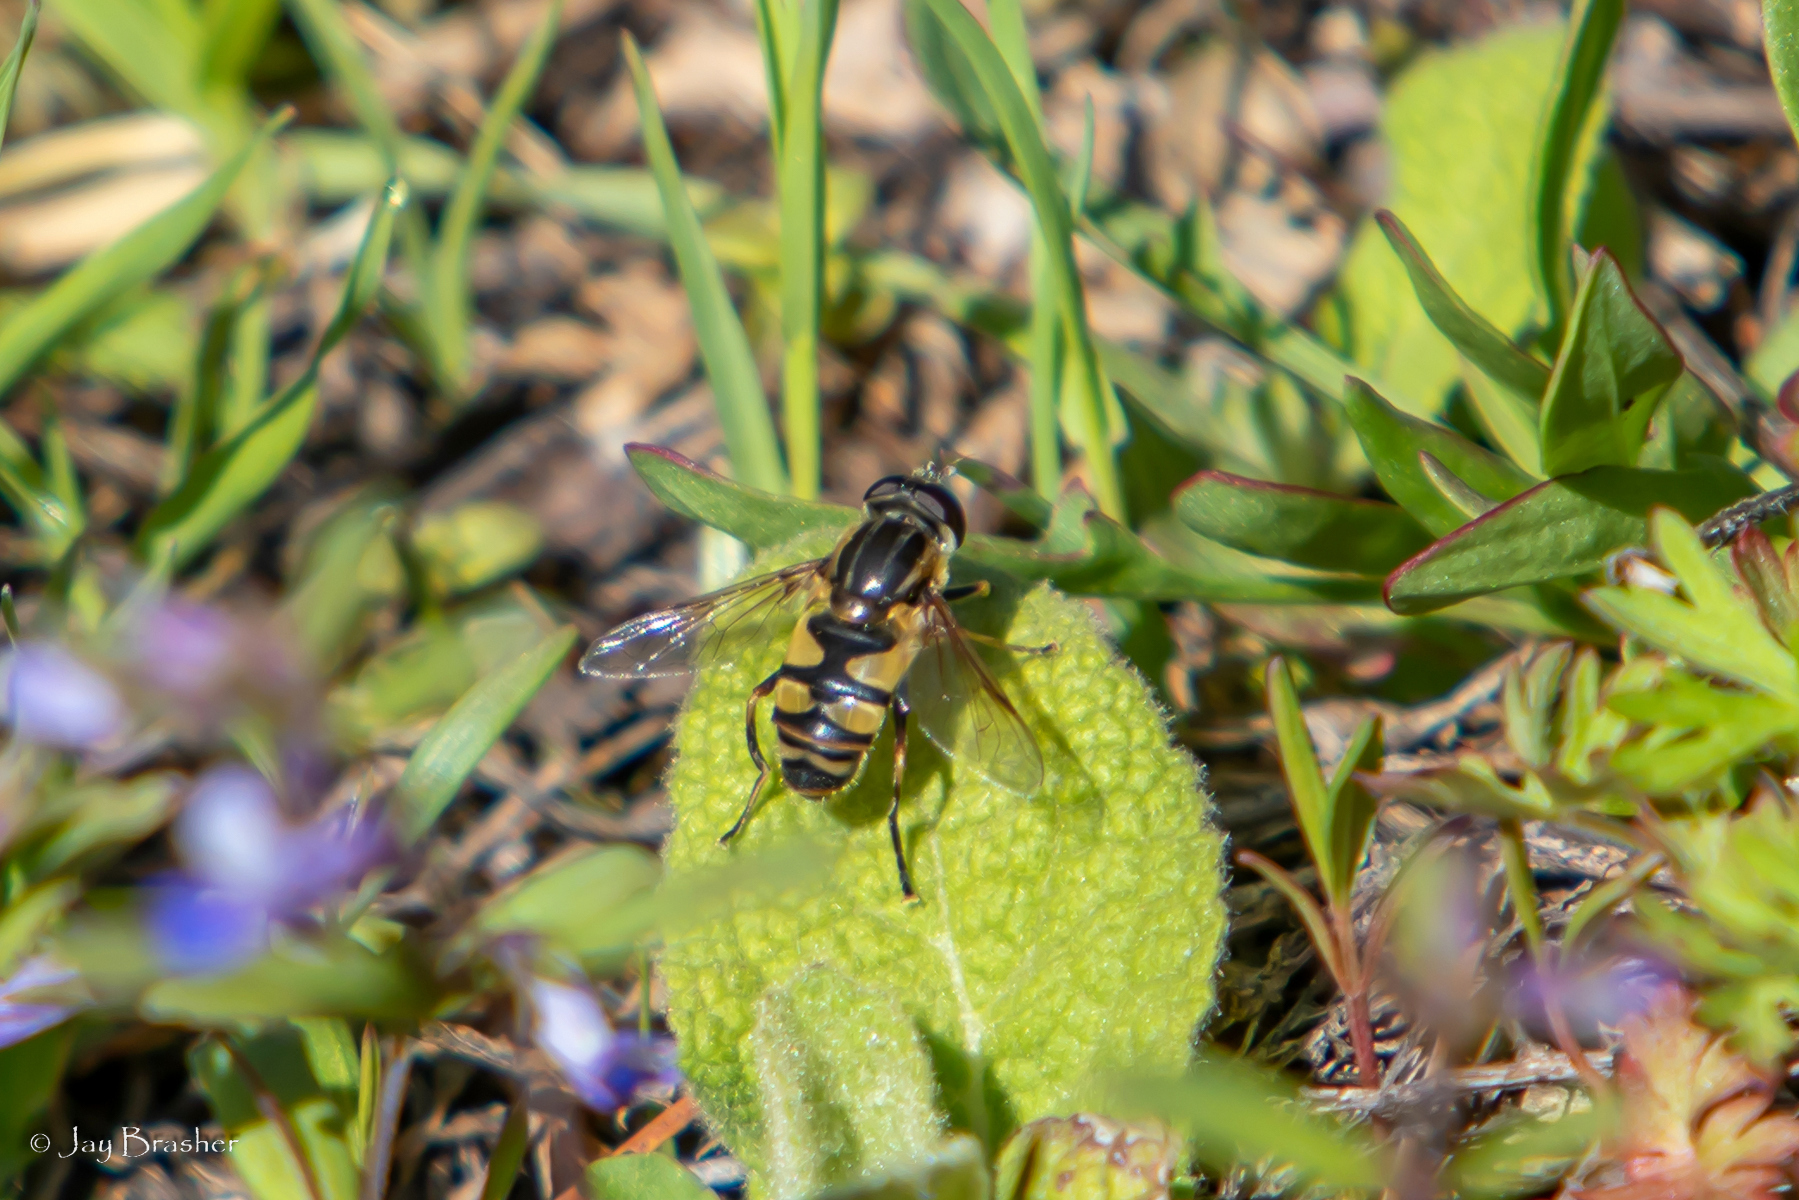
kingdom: Animalia
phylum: Arthropoda
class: Insecta
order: Diptera
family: Syrphidae
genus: Helophilus
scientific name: Helophilus fasciatus
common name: Narrow-headed marsh fly
